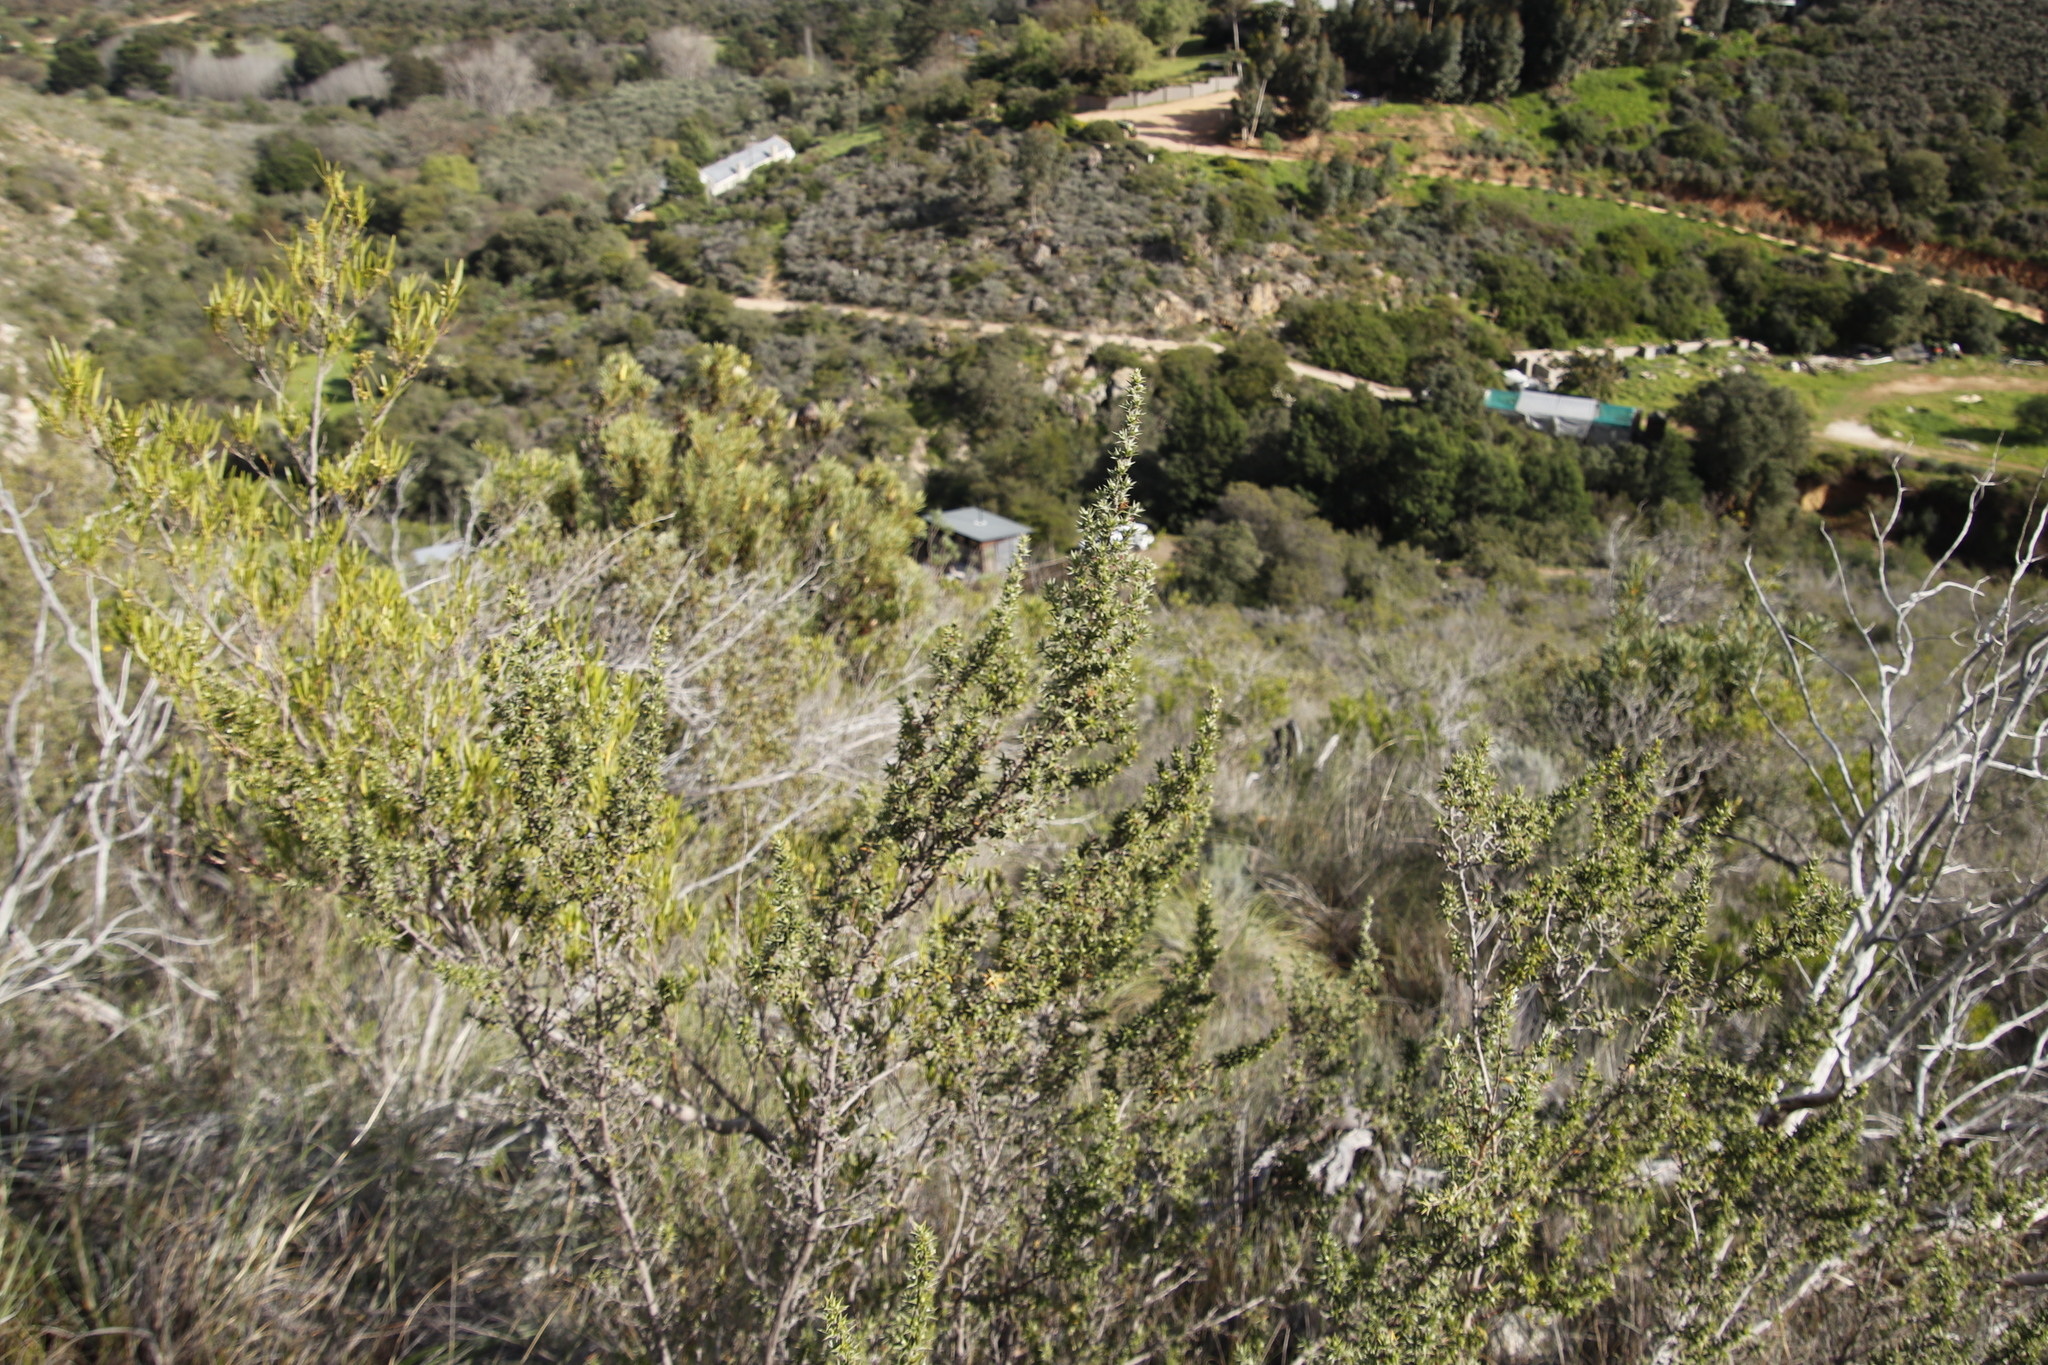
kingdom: Plantae
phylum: Tracheophyta
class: Magnoliopsida
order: Rosales
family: Rosaceae
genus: Cliffortia
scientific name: Cliffortia ruscifolia
